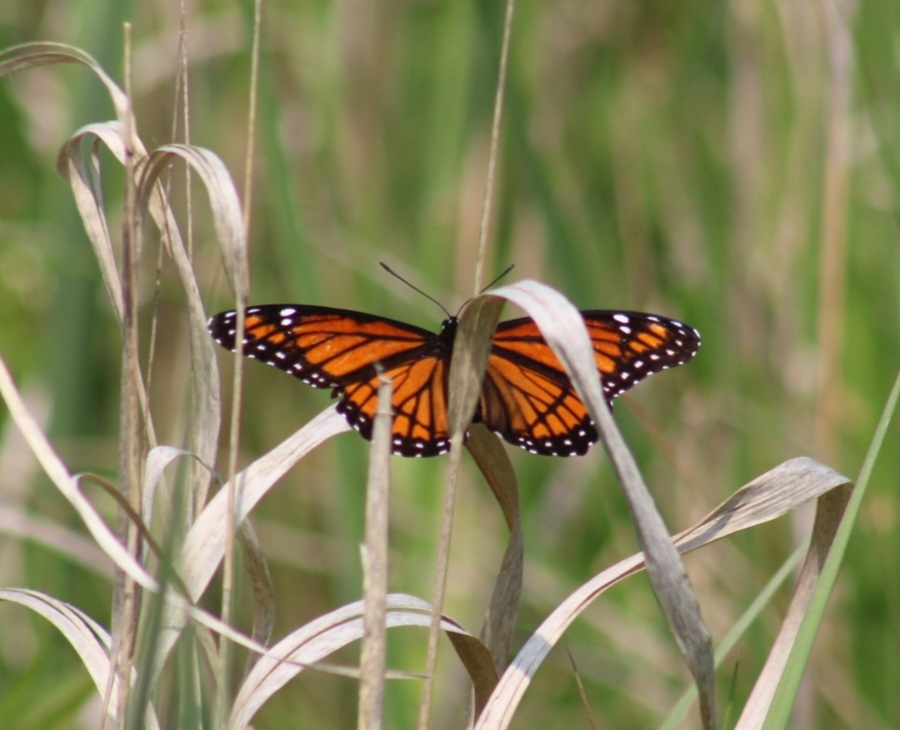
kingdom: Animalia
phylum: Arthropoda
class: Insecta
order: Lepidoptera
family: Nymphalidae
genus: Limenitis
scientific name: Limenitis archippus
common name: Viceroy
